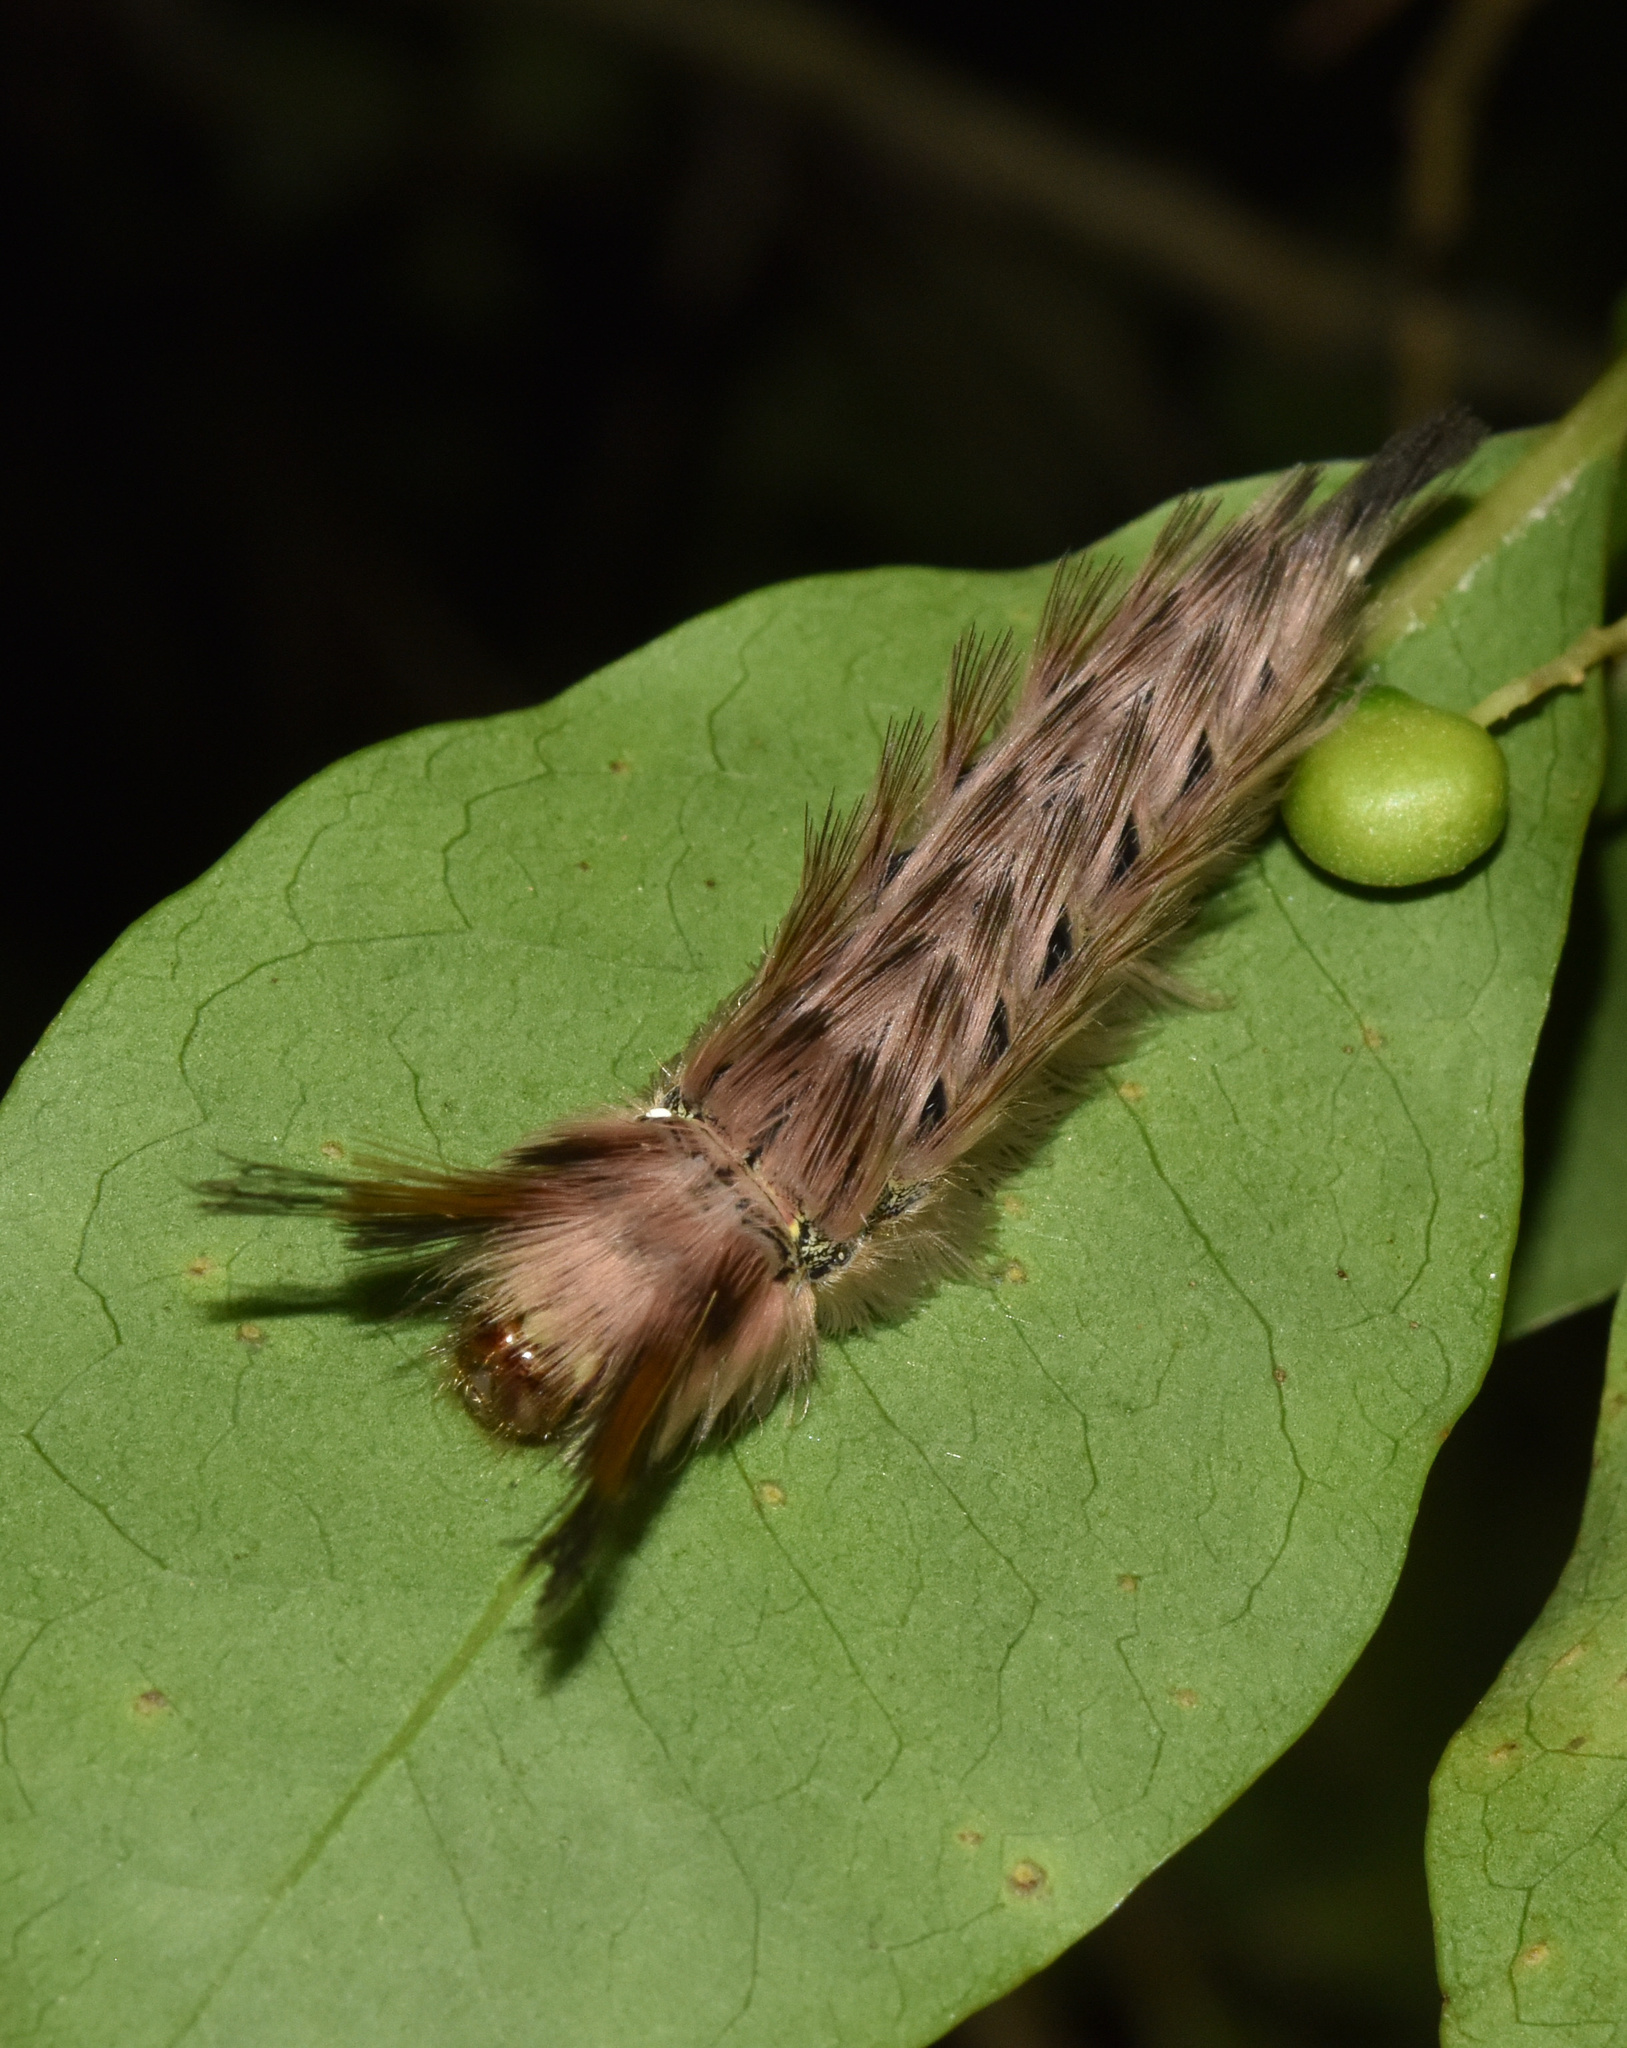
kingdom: Animalia
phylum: Arthropoda
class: Insecta
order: Lepidoptera
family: Eupterotidae
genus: Lichenopteryx
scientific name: Lichenopteryx despecta
